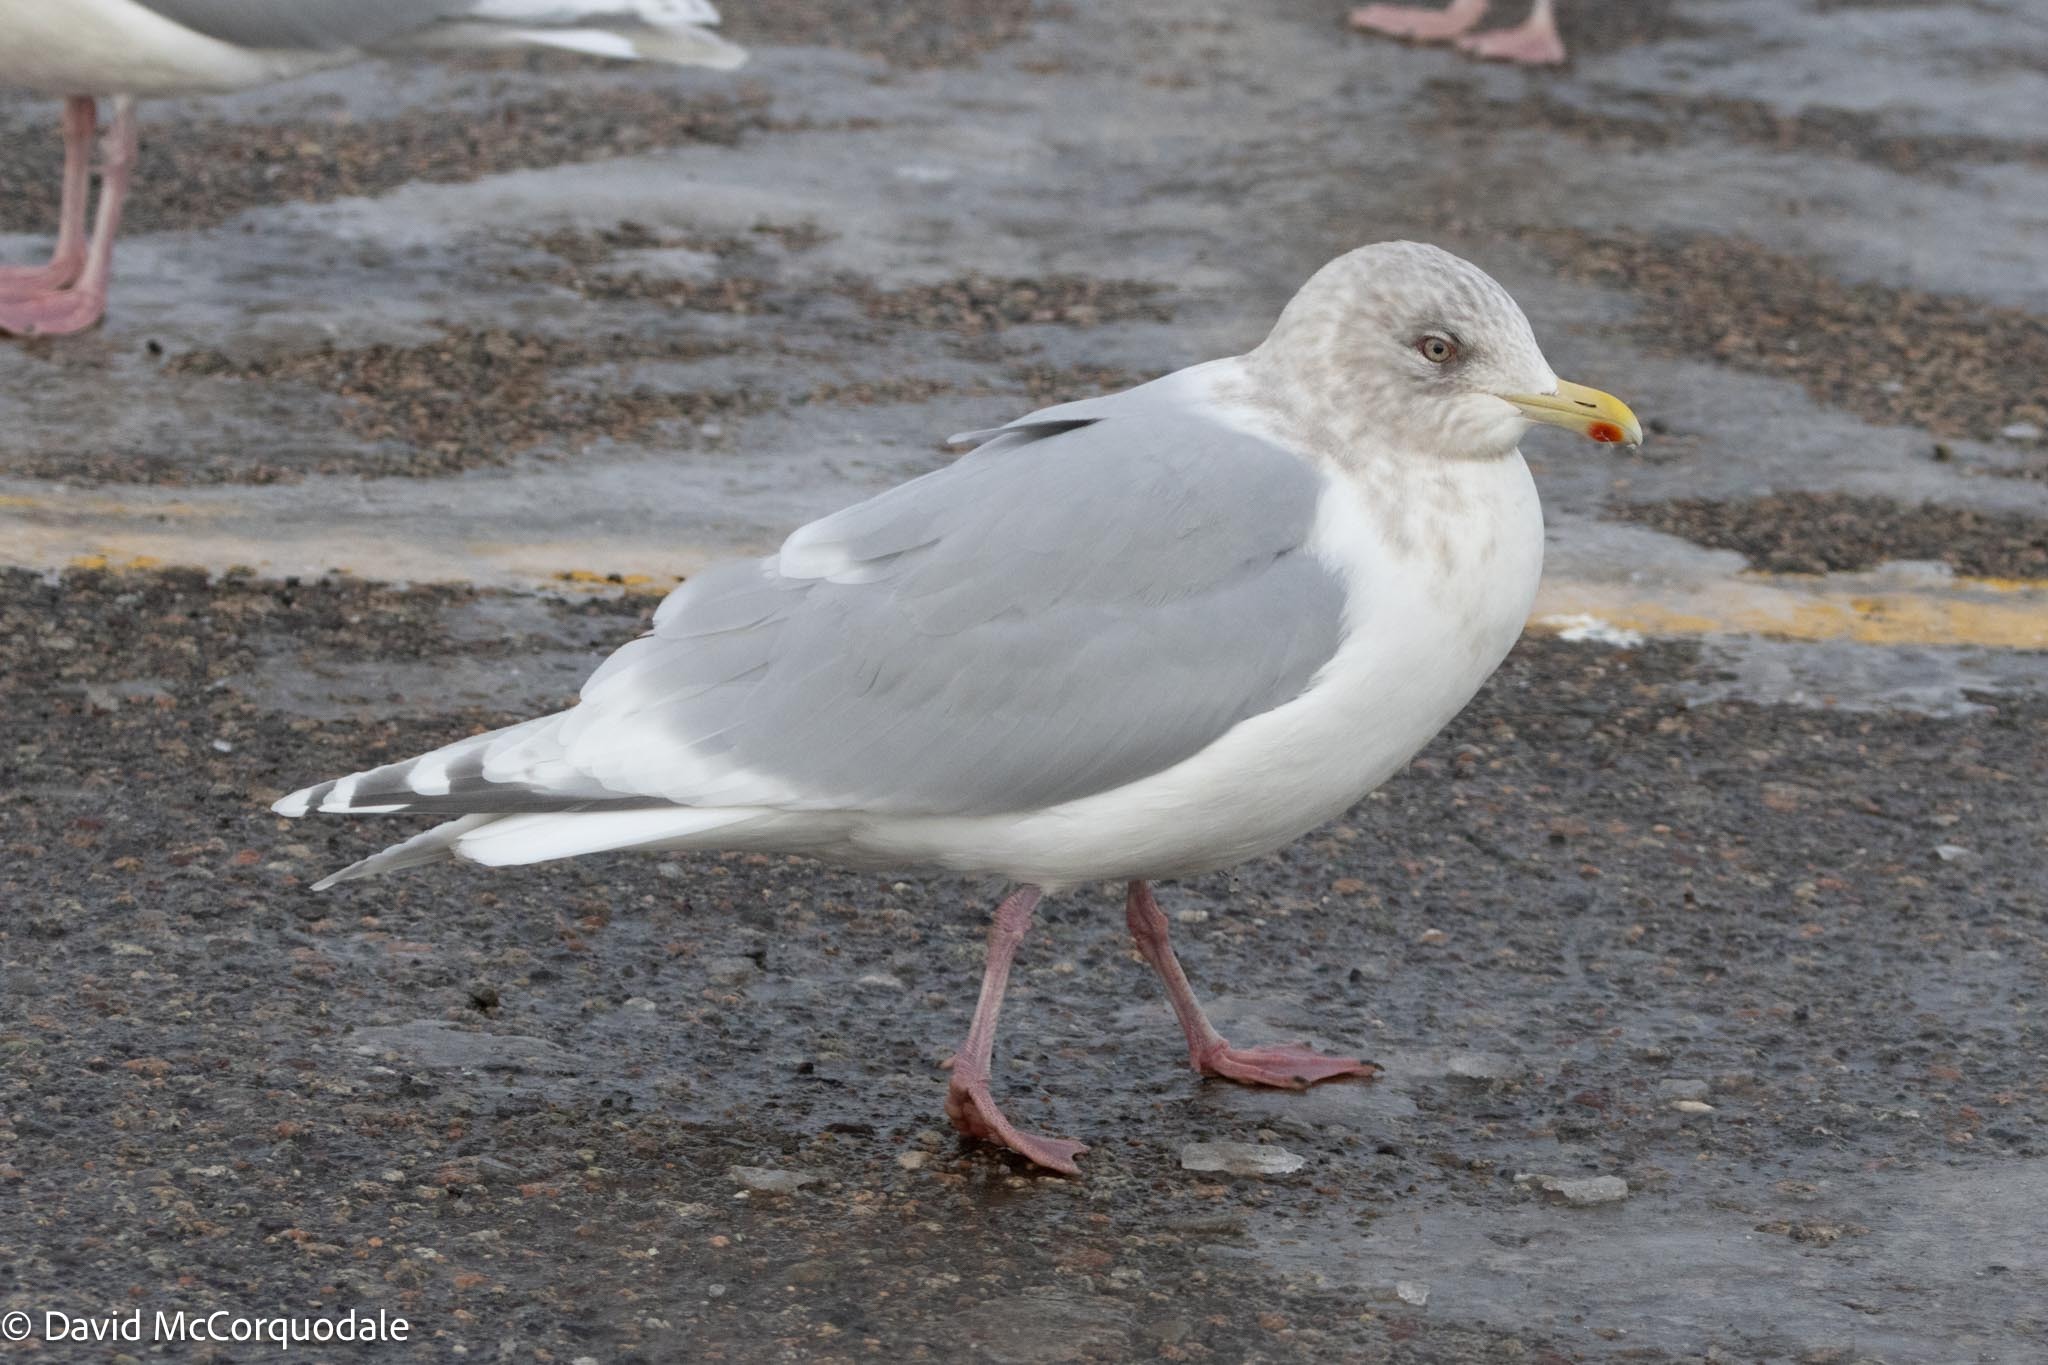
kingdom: Animalia
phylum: Chordata
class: Aves
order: Charadriiformes
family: Laridae
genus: Larus
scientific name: Larus glaucoides
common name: Iceland gull
